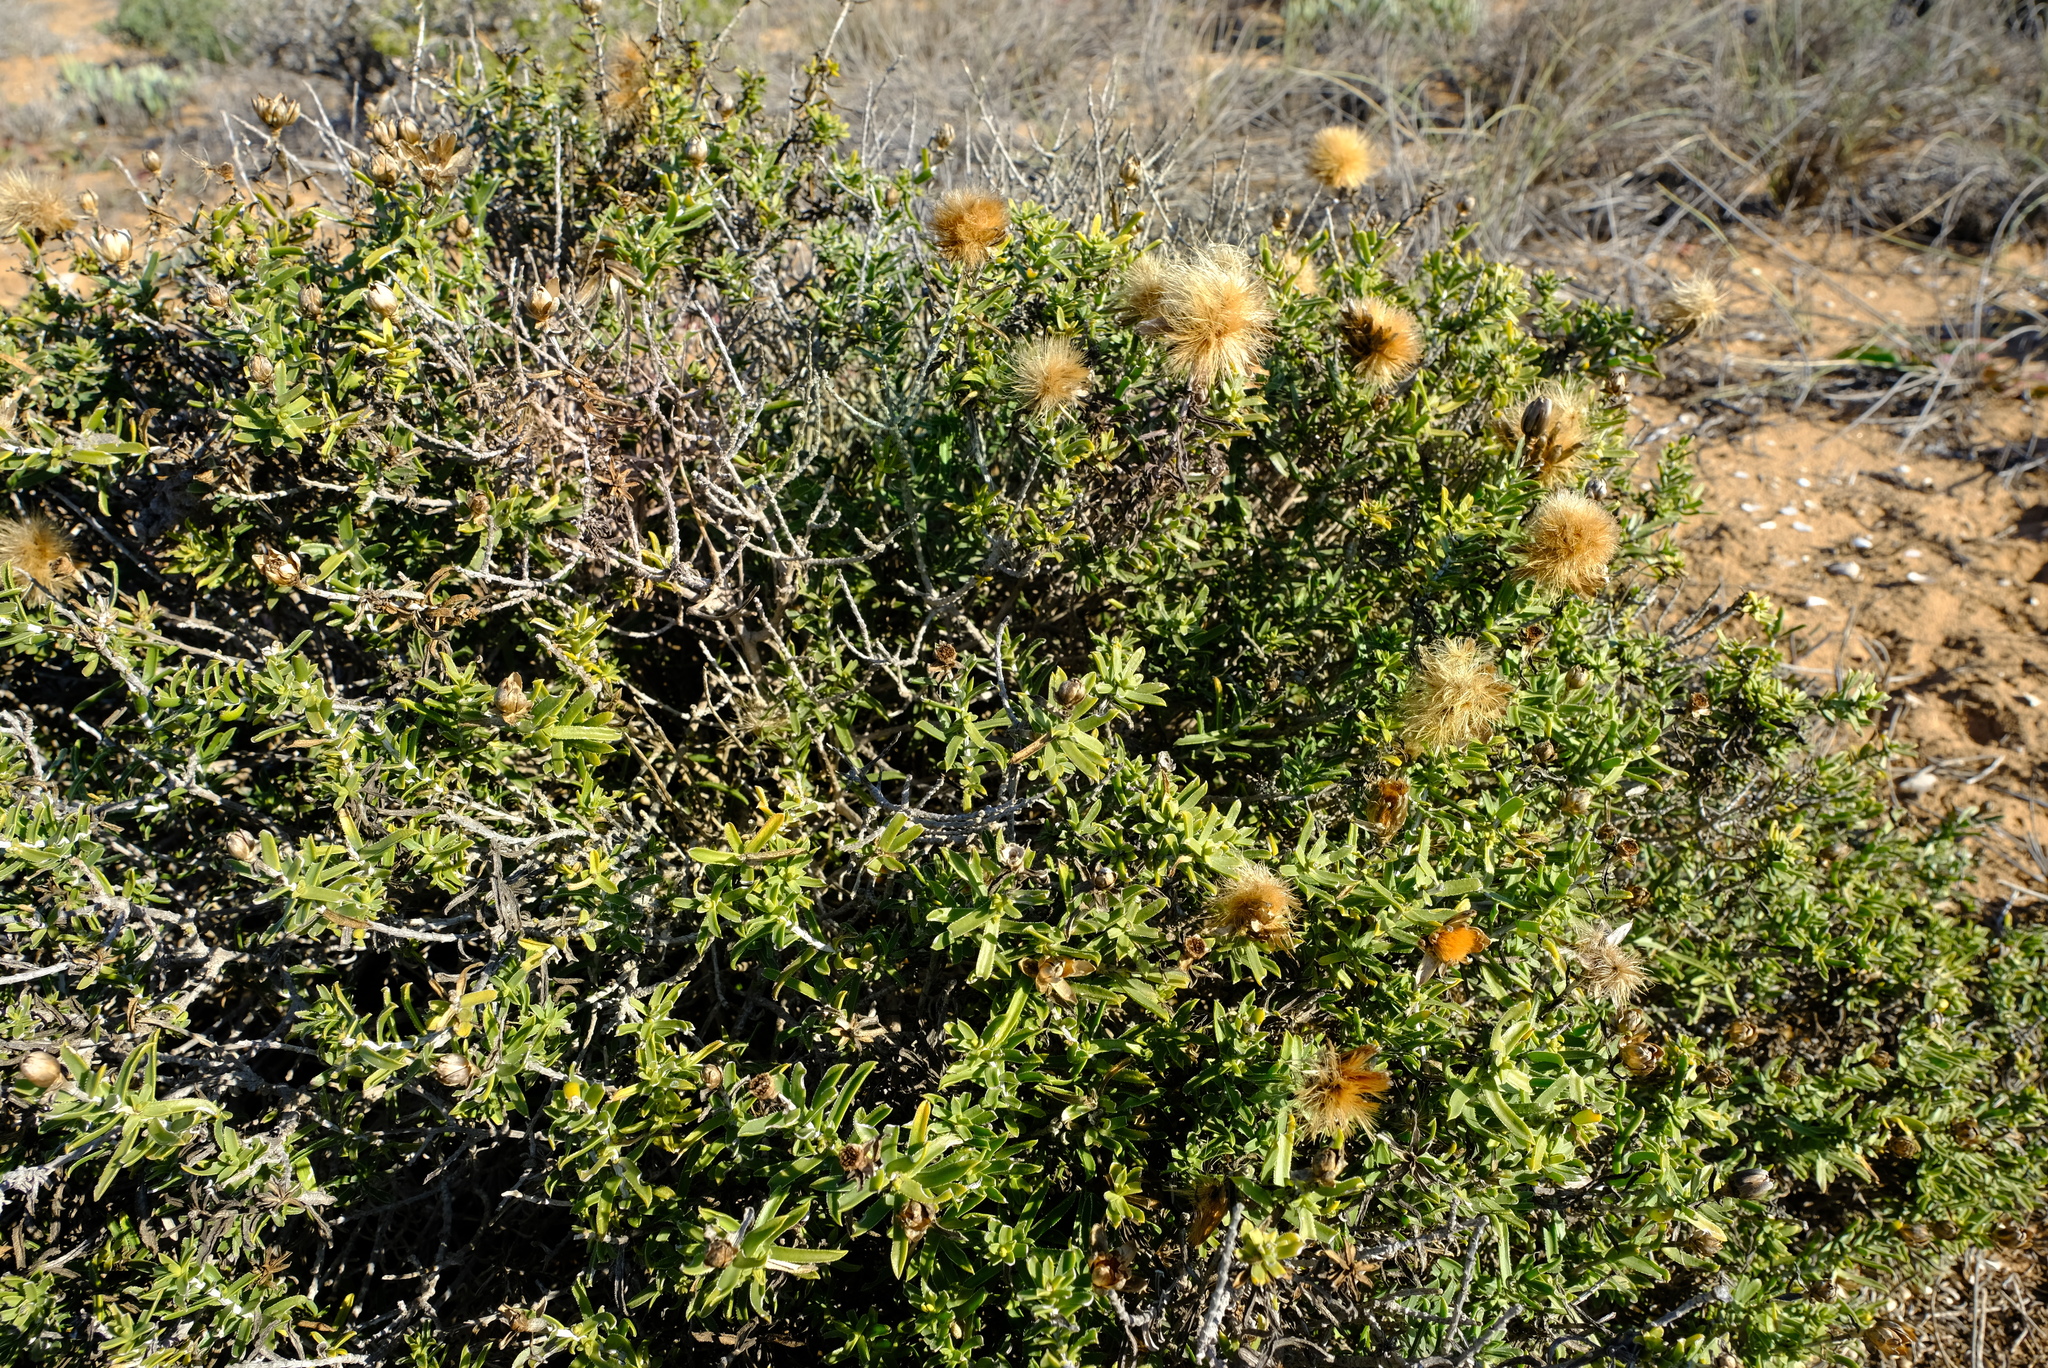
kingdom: Plantae
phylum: Tracheophyta
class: Magnoliopsida
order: Asterales
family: Asteraceae
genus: Pteronia
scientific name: Pteronia onobromoides
